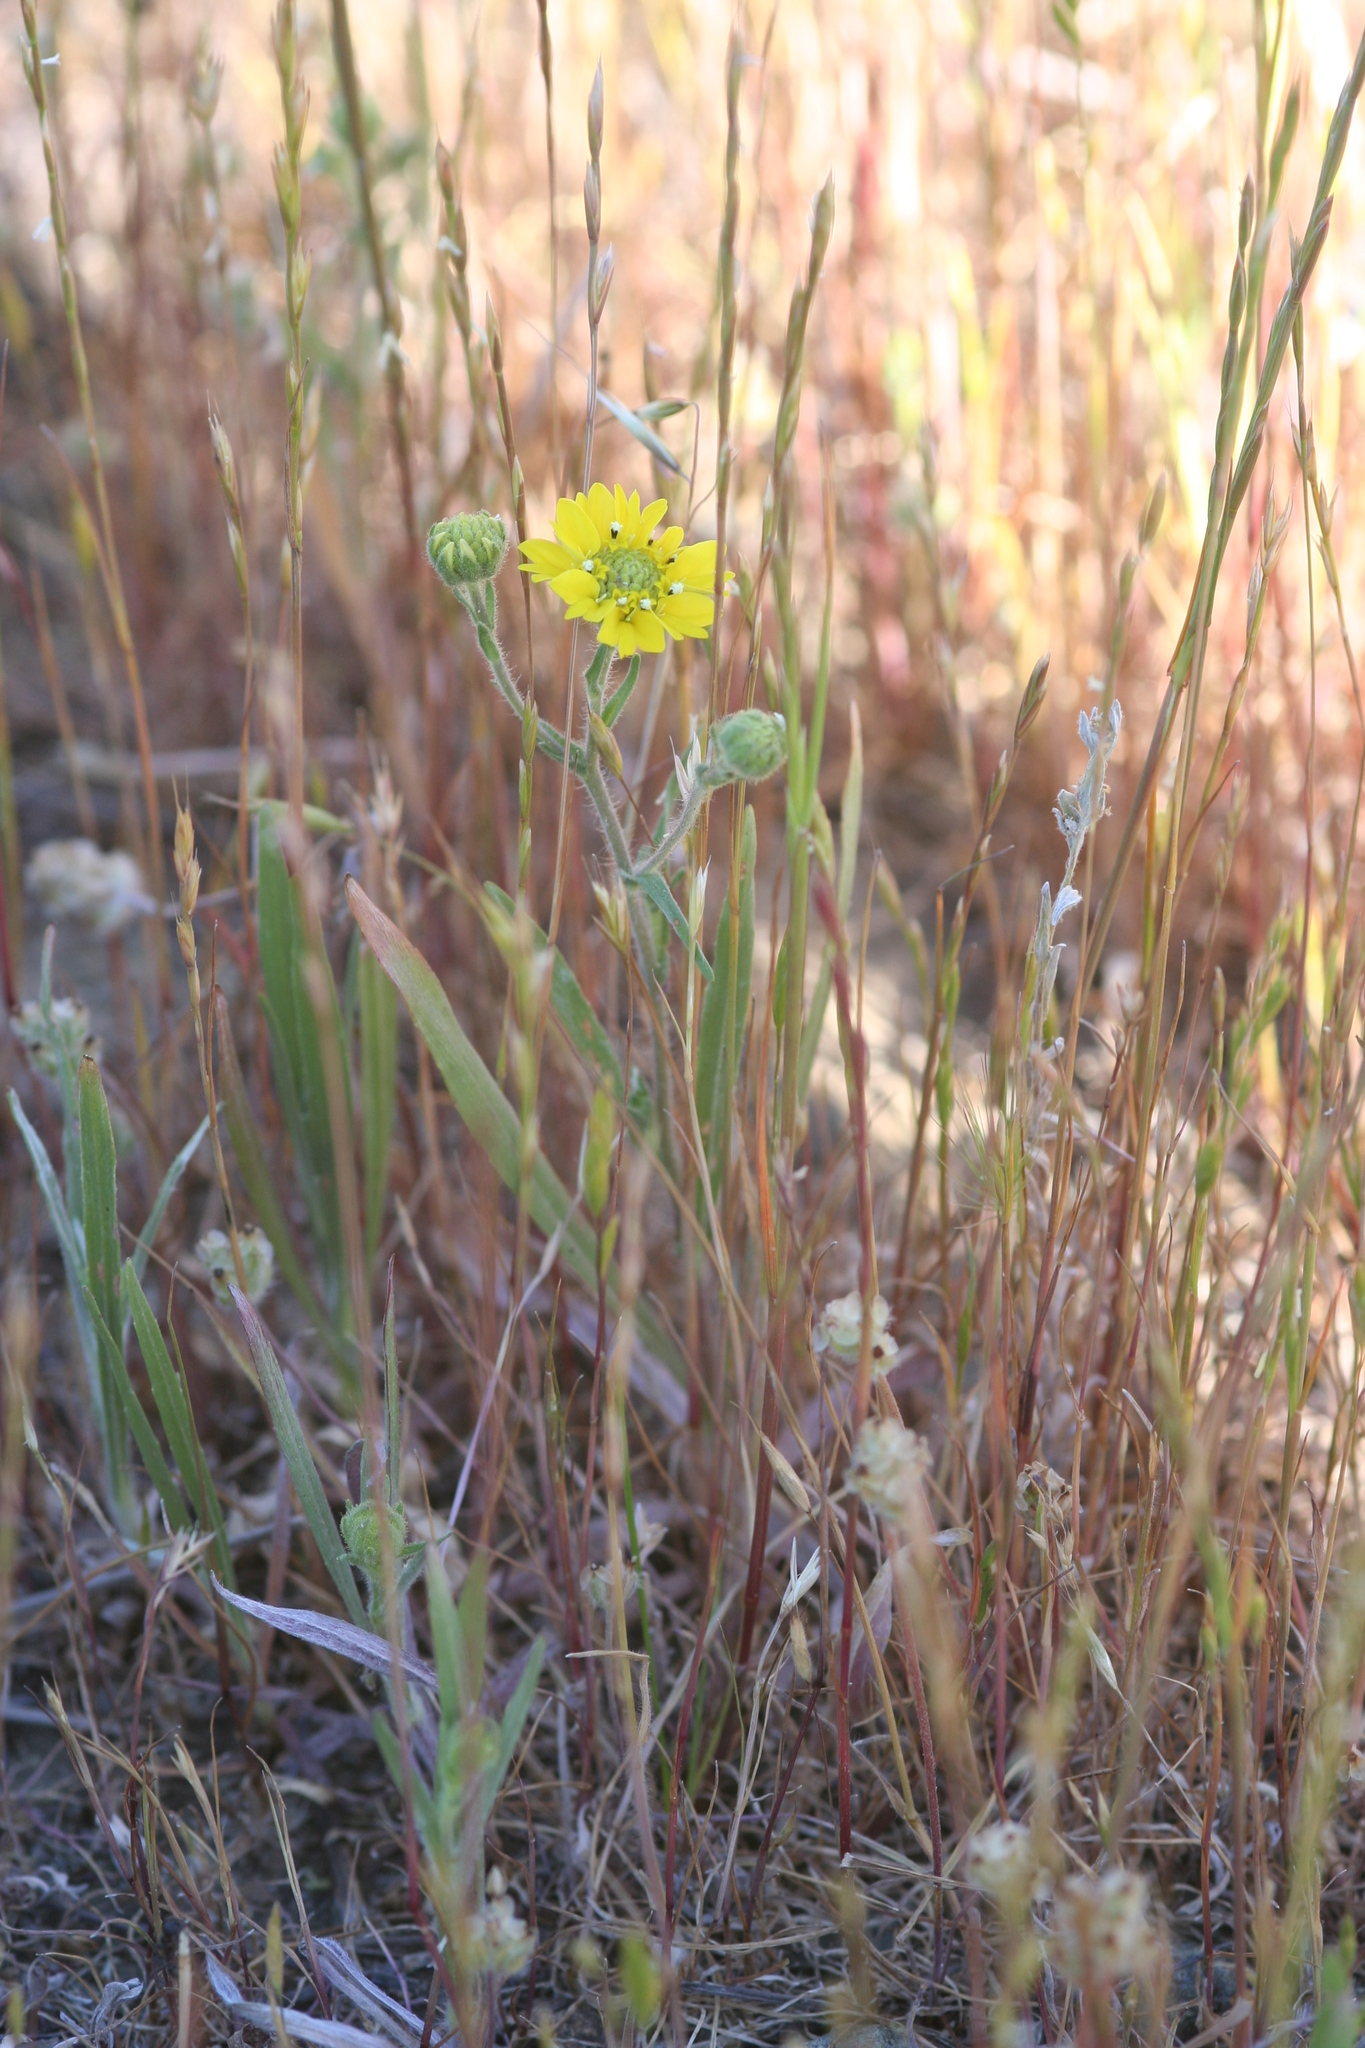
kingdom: Plantae
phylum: Tracheophyta
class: Magnoliopsida
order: Asterales
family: Asteraceae
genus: Hemizonia
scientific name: Hemizonia congesta
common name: Hayfield tarweed
